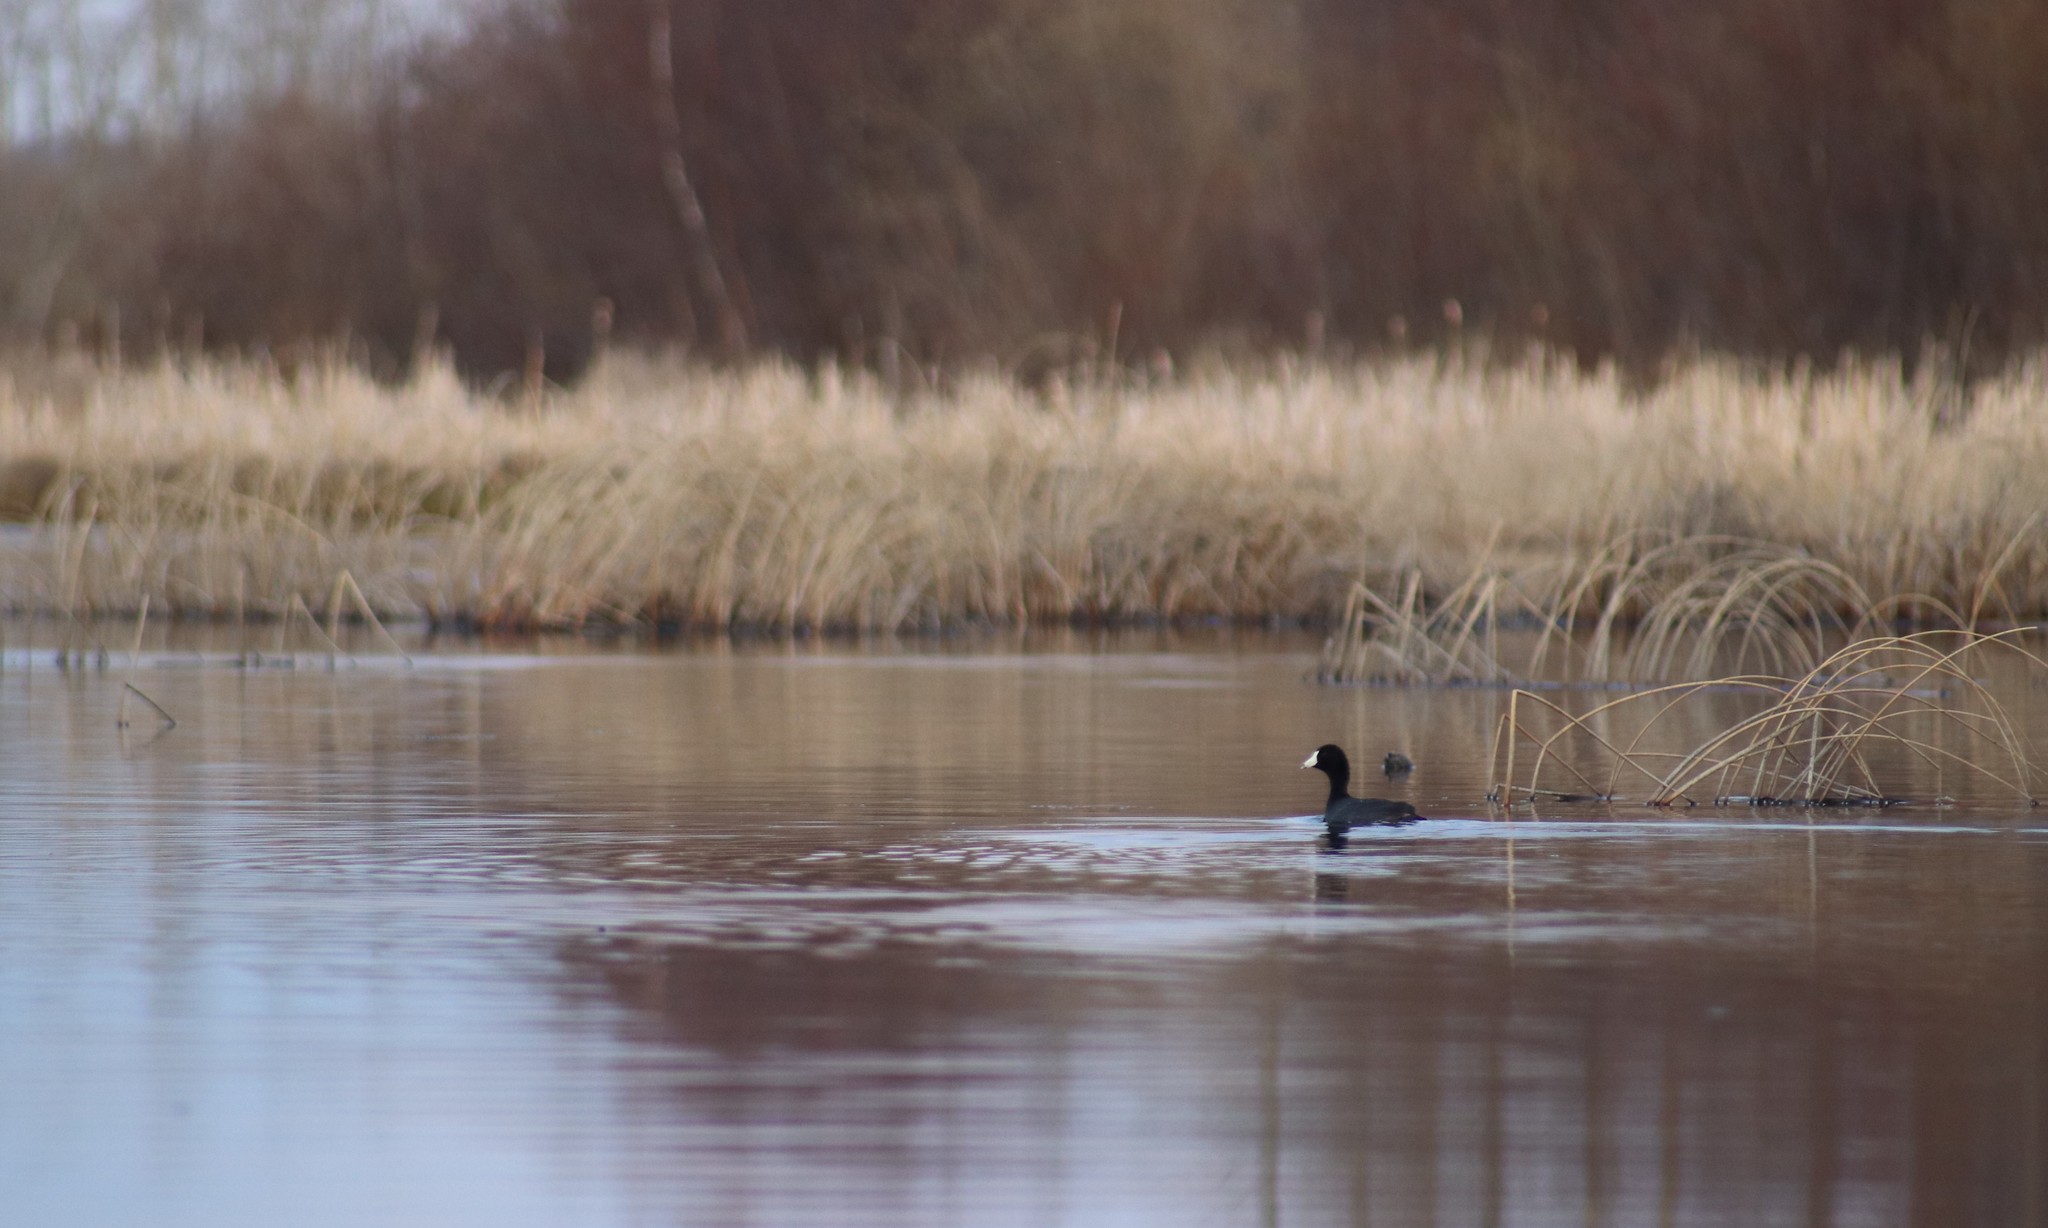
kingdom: Animalia
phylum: Chordata
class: Aves
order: Gruiformes
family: Rallidae
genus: Fulica
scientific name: Fulica americana
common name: American coot
